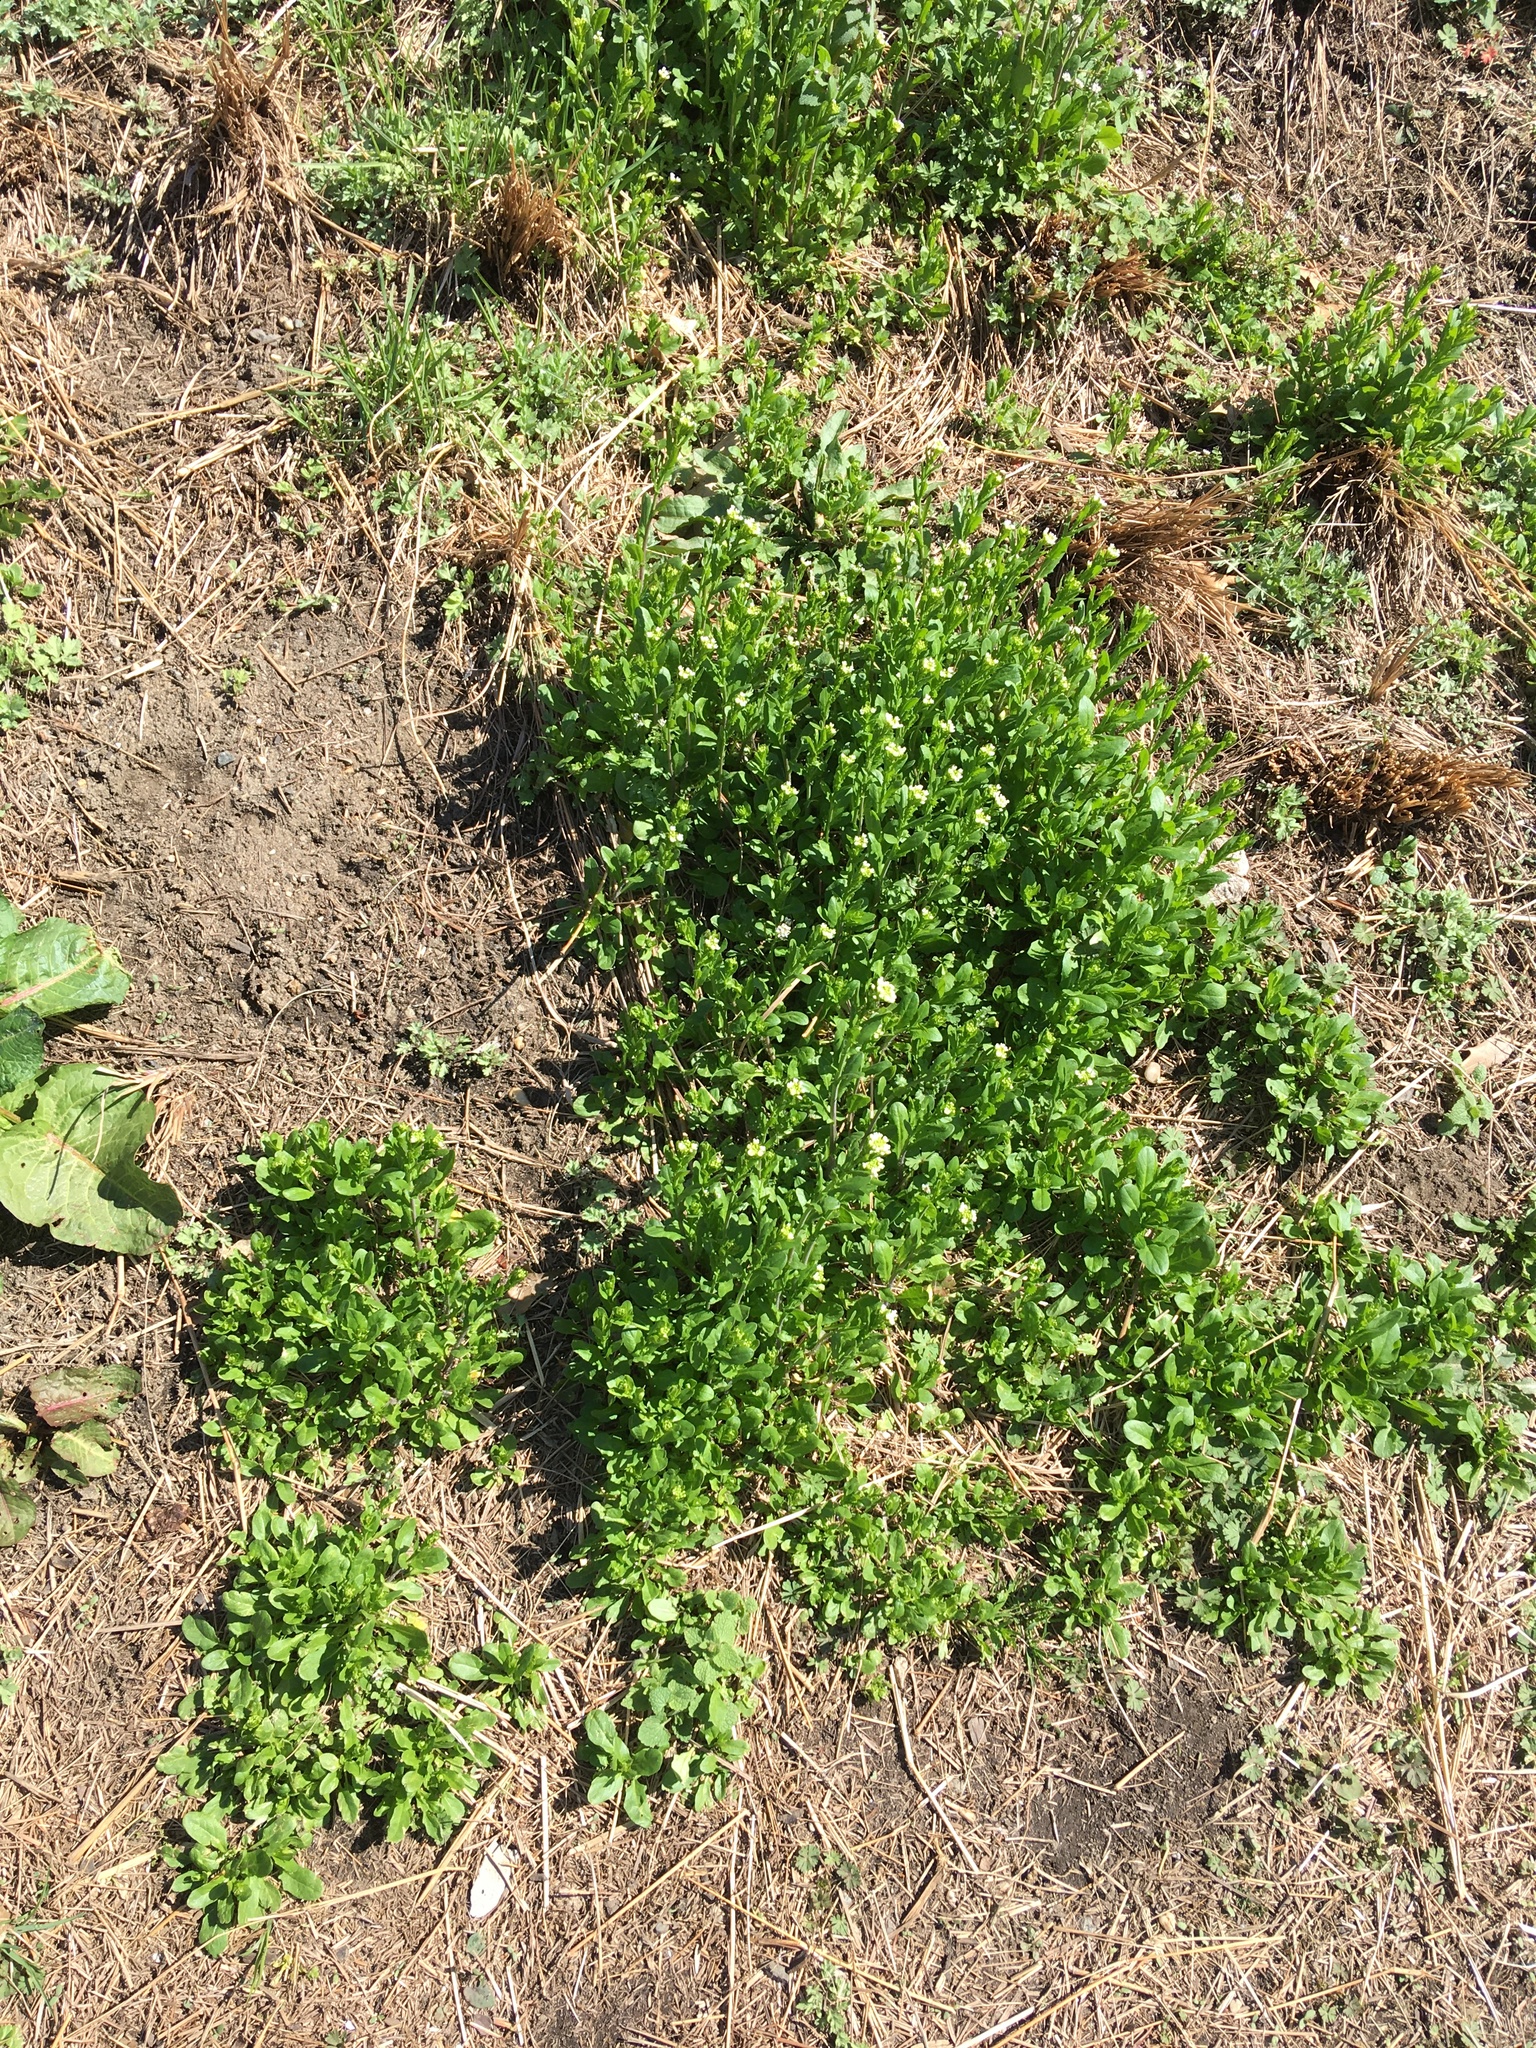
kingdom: Plantae
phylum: Tracheophyta
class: Magnoliopsida
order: Brassicales
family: Brassicaceae
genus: Mummenhoffia
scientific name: Mummenhoffia alliacea
